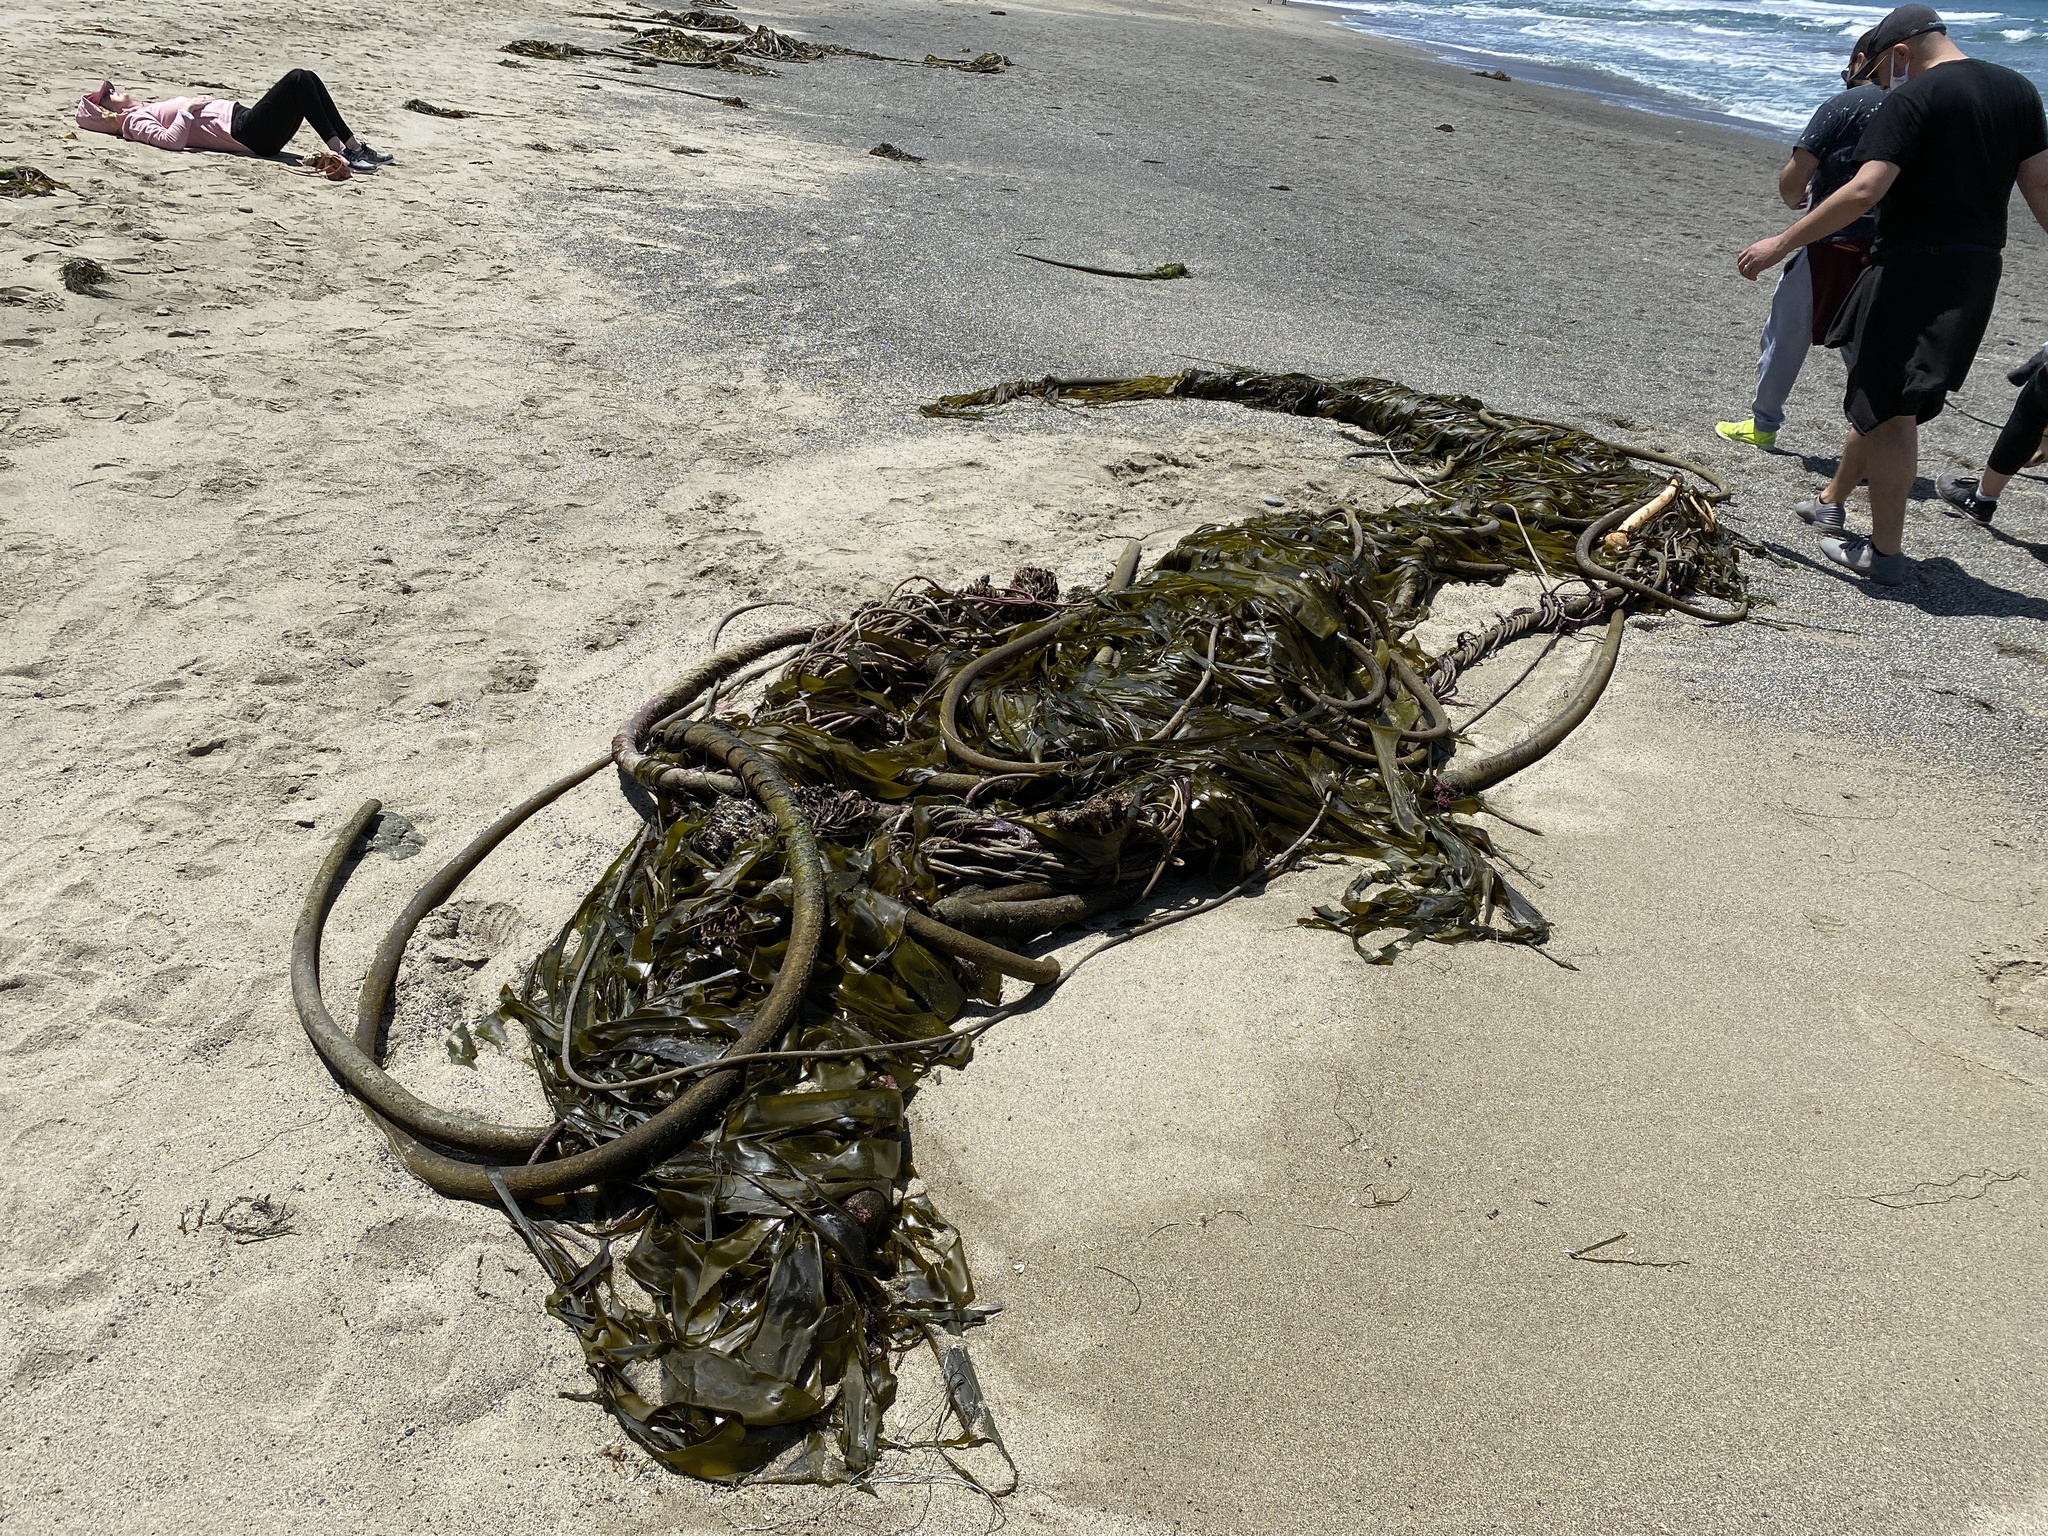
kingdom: Chromista
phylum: Ochrophyta
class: Phaeophyceae
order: Laminariales
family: Laminariaceae
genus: Nereocystis
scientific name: Nereocystis luetkeana
